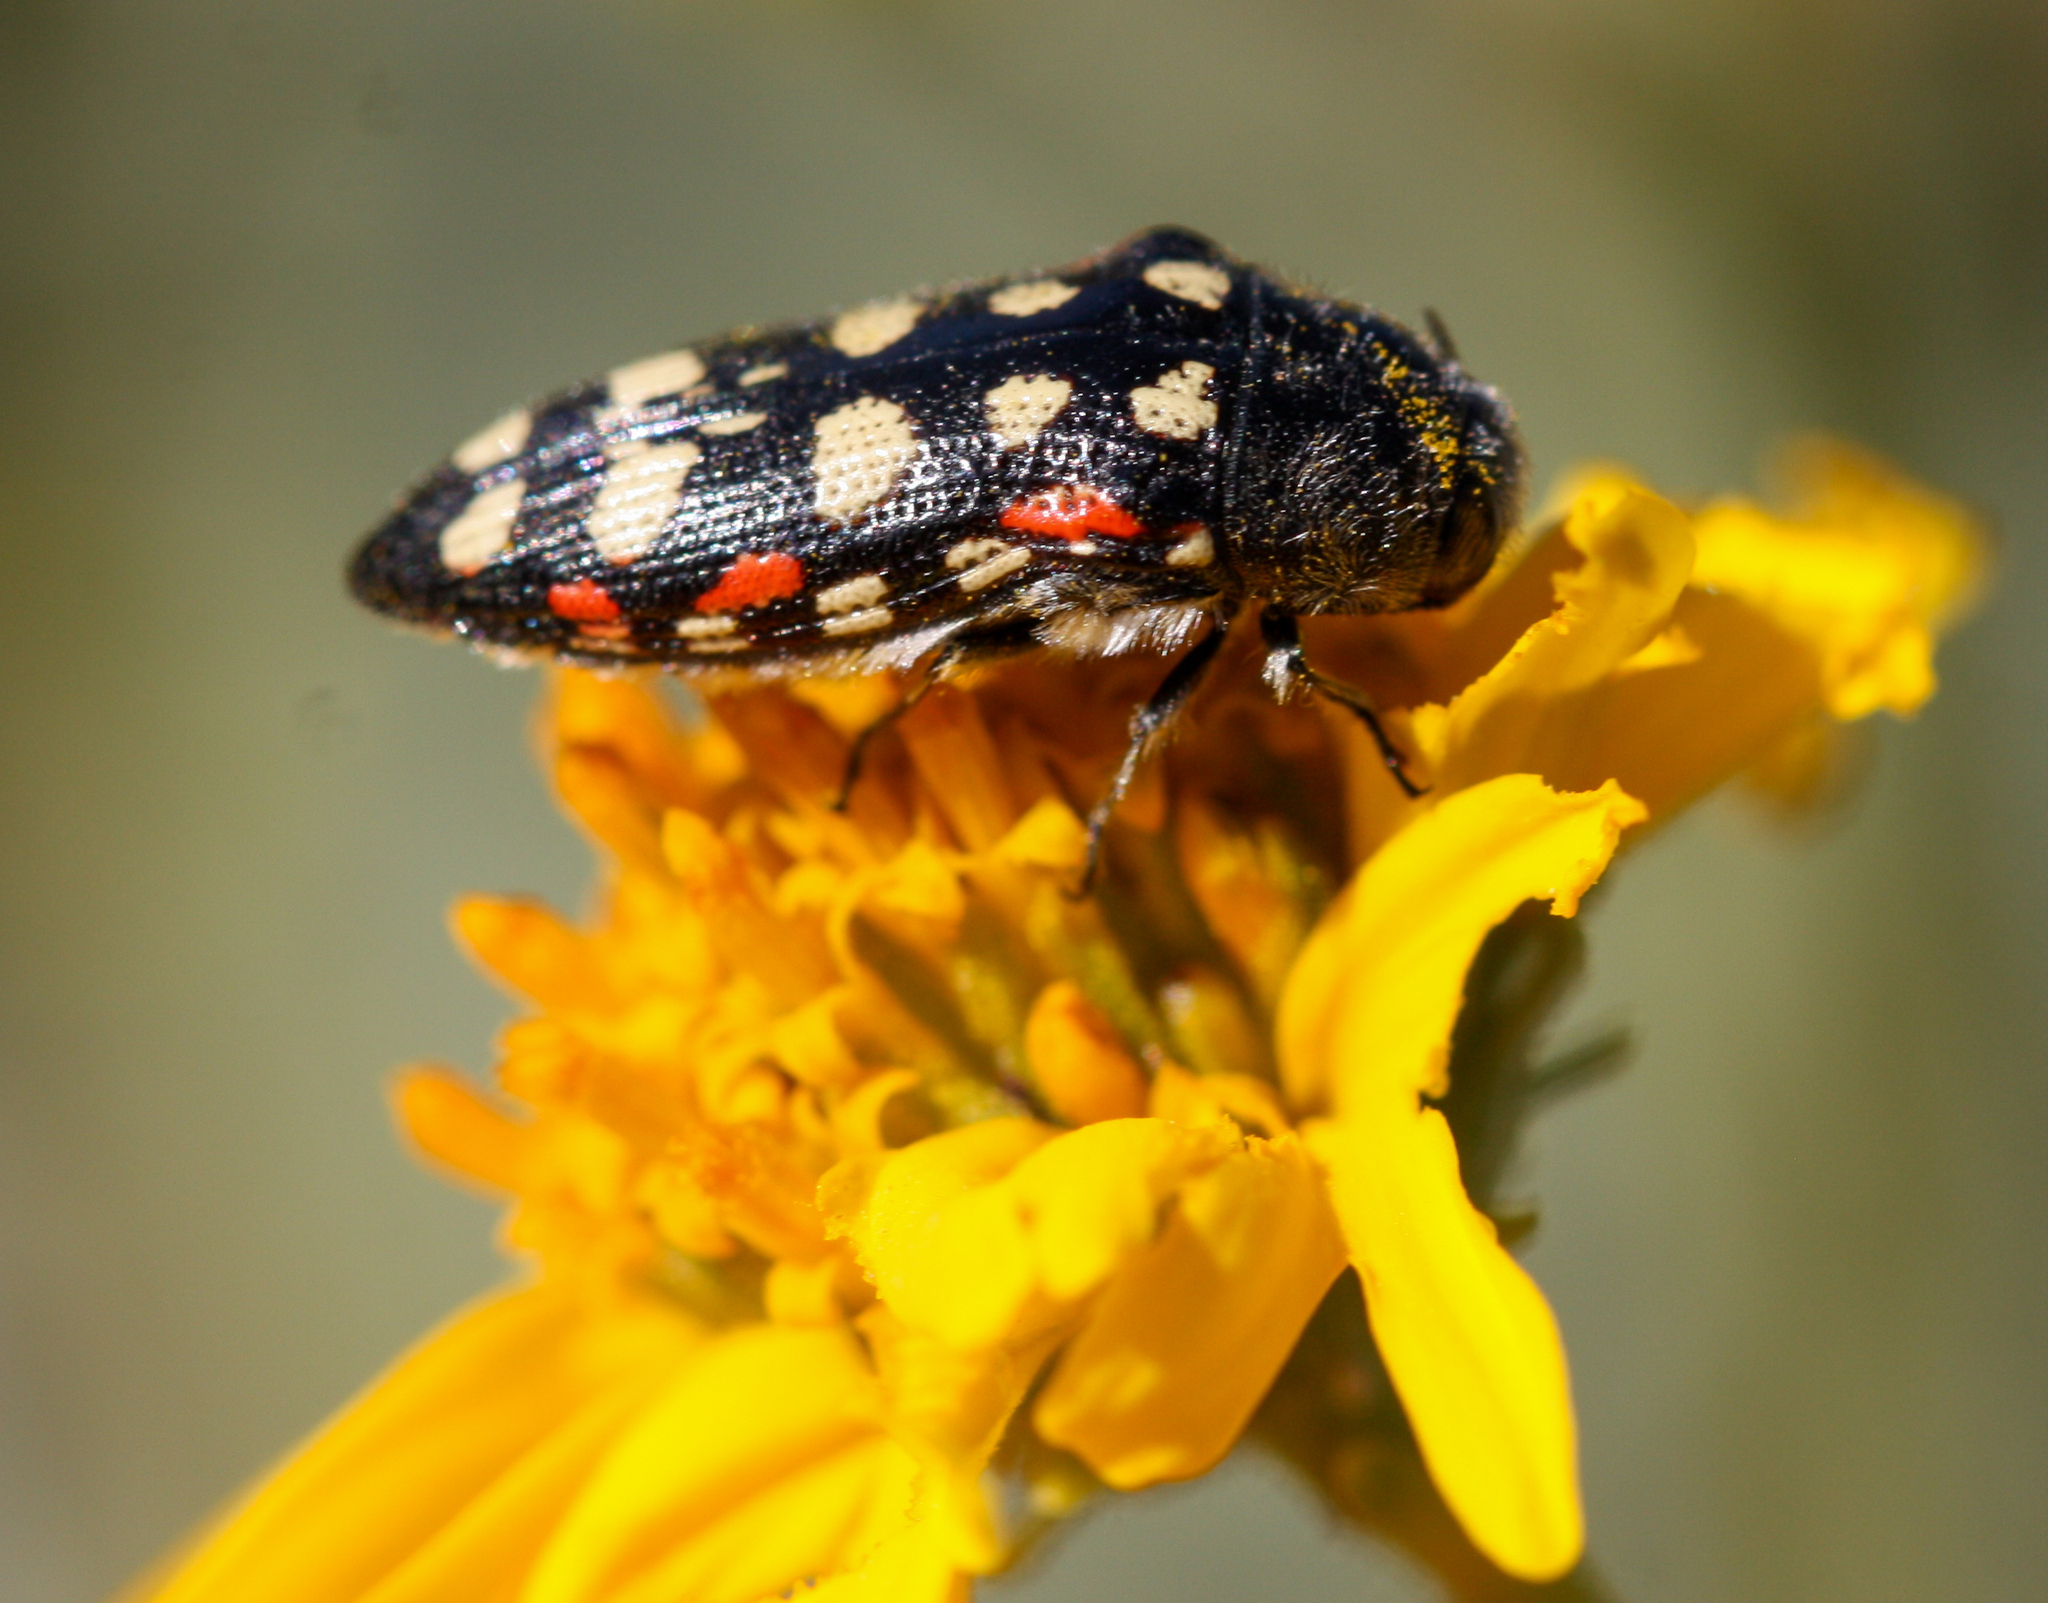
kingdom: Animalia
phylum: Arthropoda
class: Insecta
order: Coleoptera
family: Buprestidae
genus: Acmaeodera
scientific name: Acmaeodera gibbula
